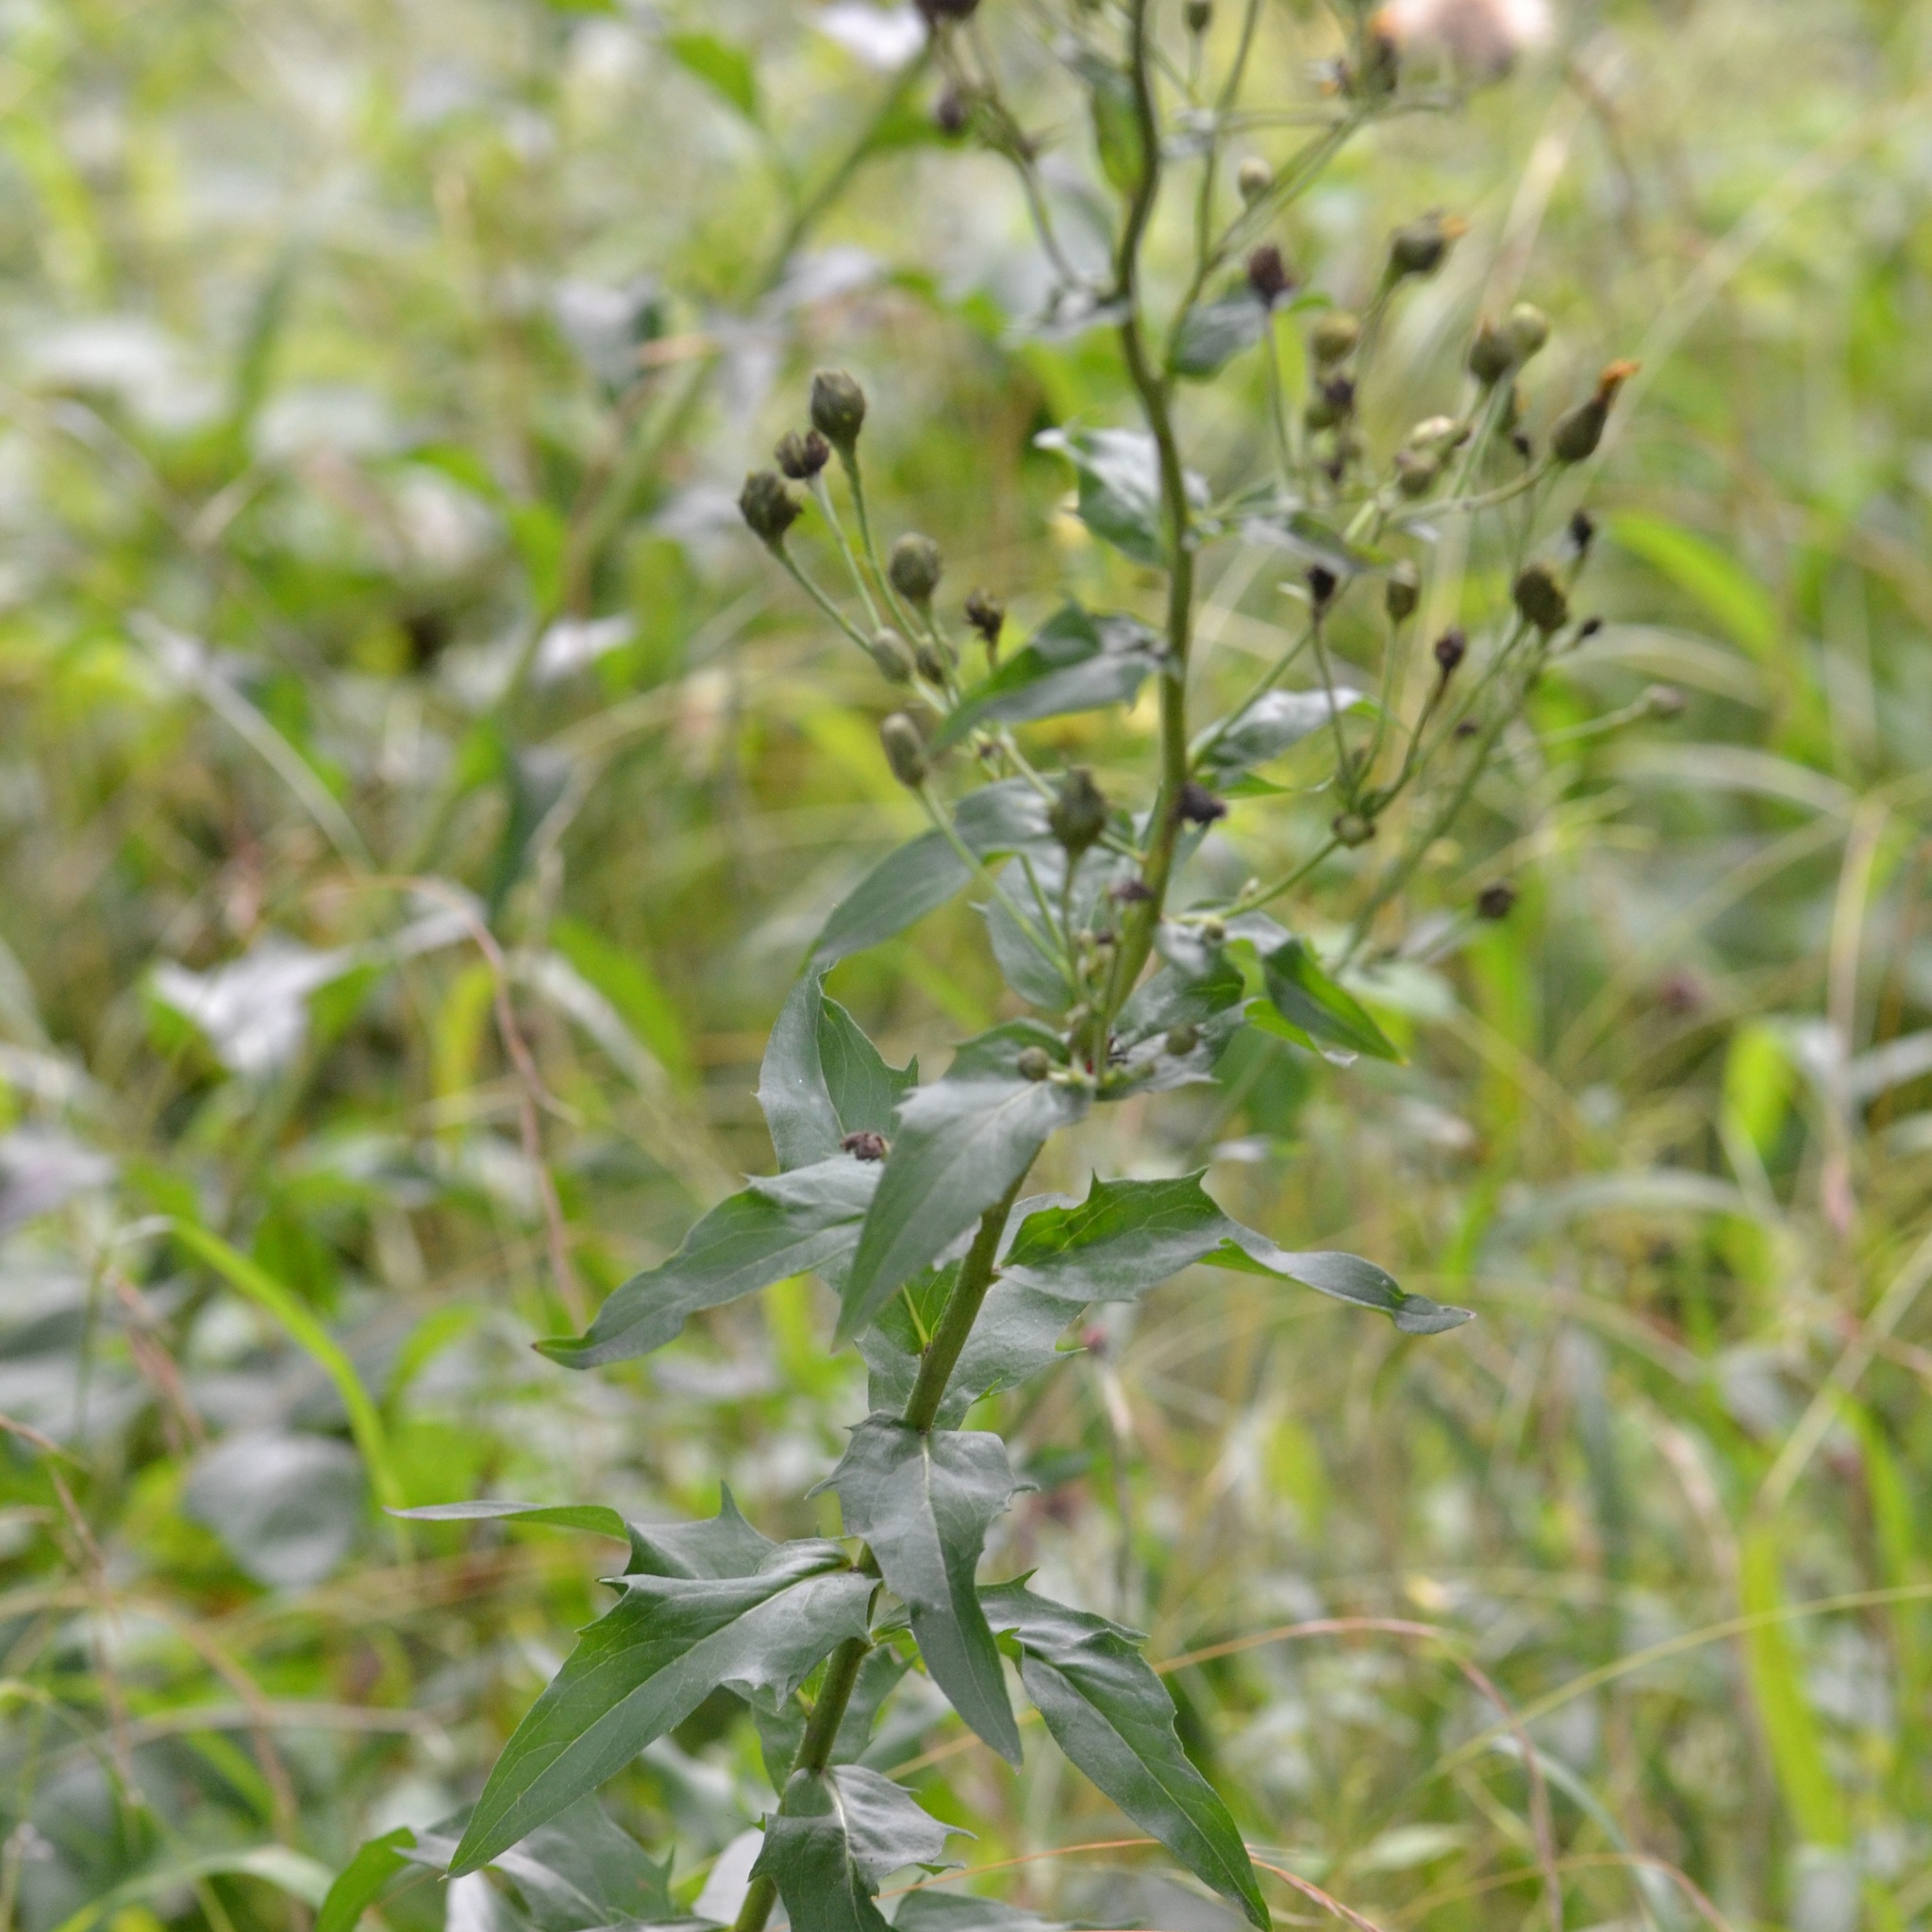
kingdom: Plantae
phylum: Tracheophyta
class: Magnoliopsida
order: Asterales
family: Asteraceae
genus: Hieracium
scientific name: Hieracium sabaudum
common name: New england hawkweed
